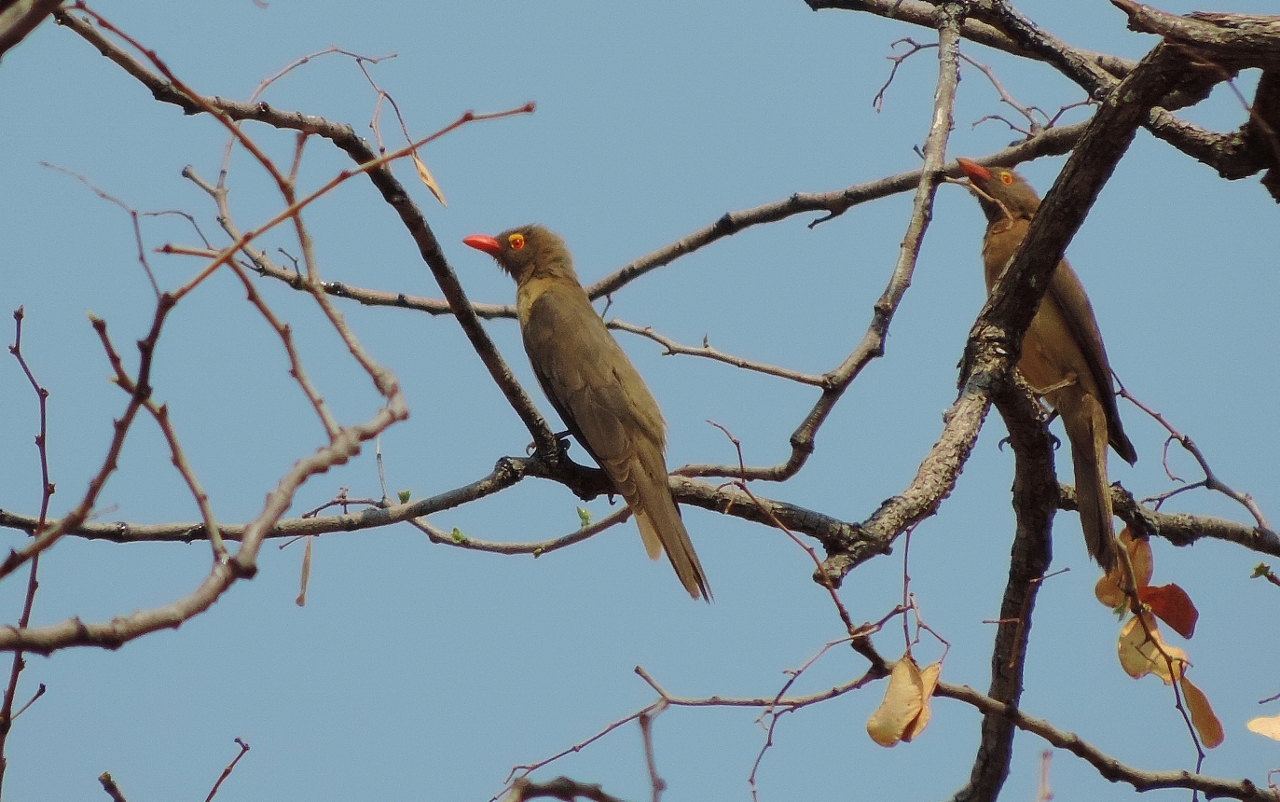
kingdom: Animalia
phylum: Chordata
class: Aves
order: Passeriformes
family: Buphagidae
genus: Buphagus
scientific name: Buphagus erythrorhynchus
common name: Red-billed oxpecker
